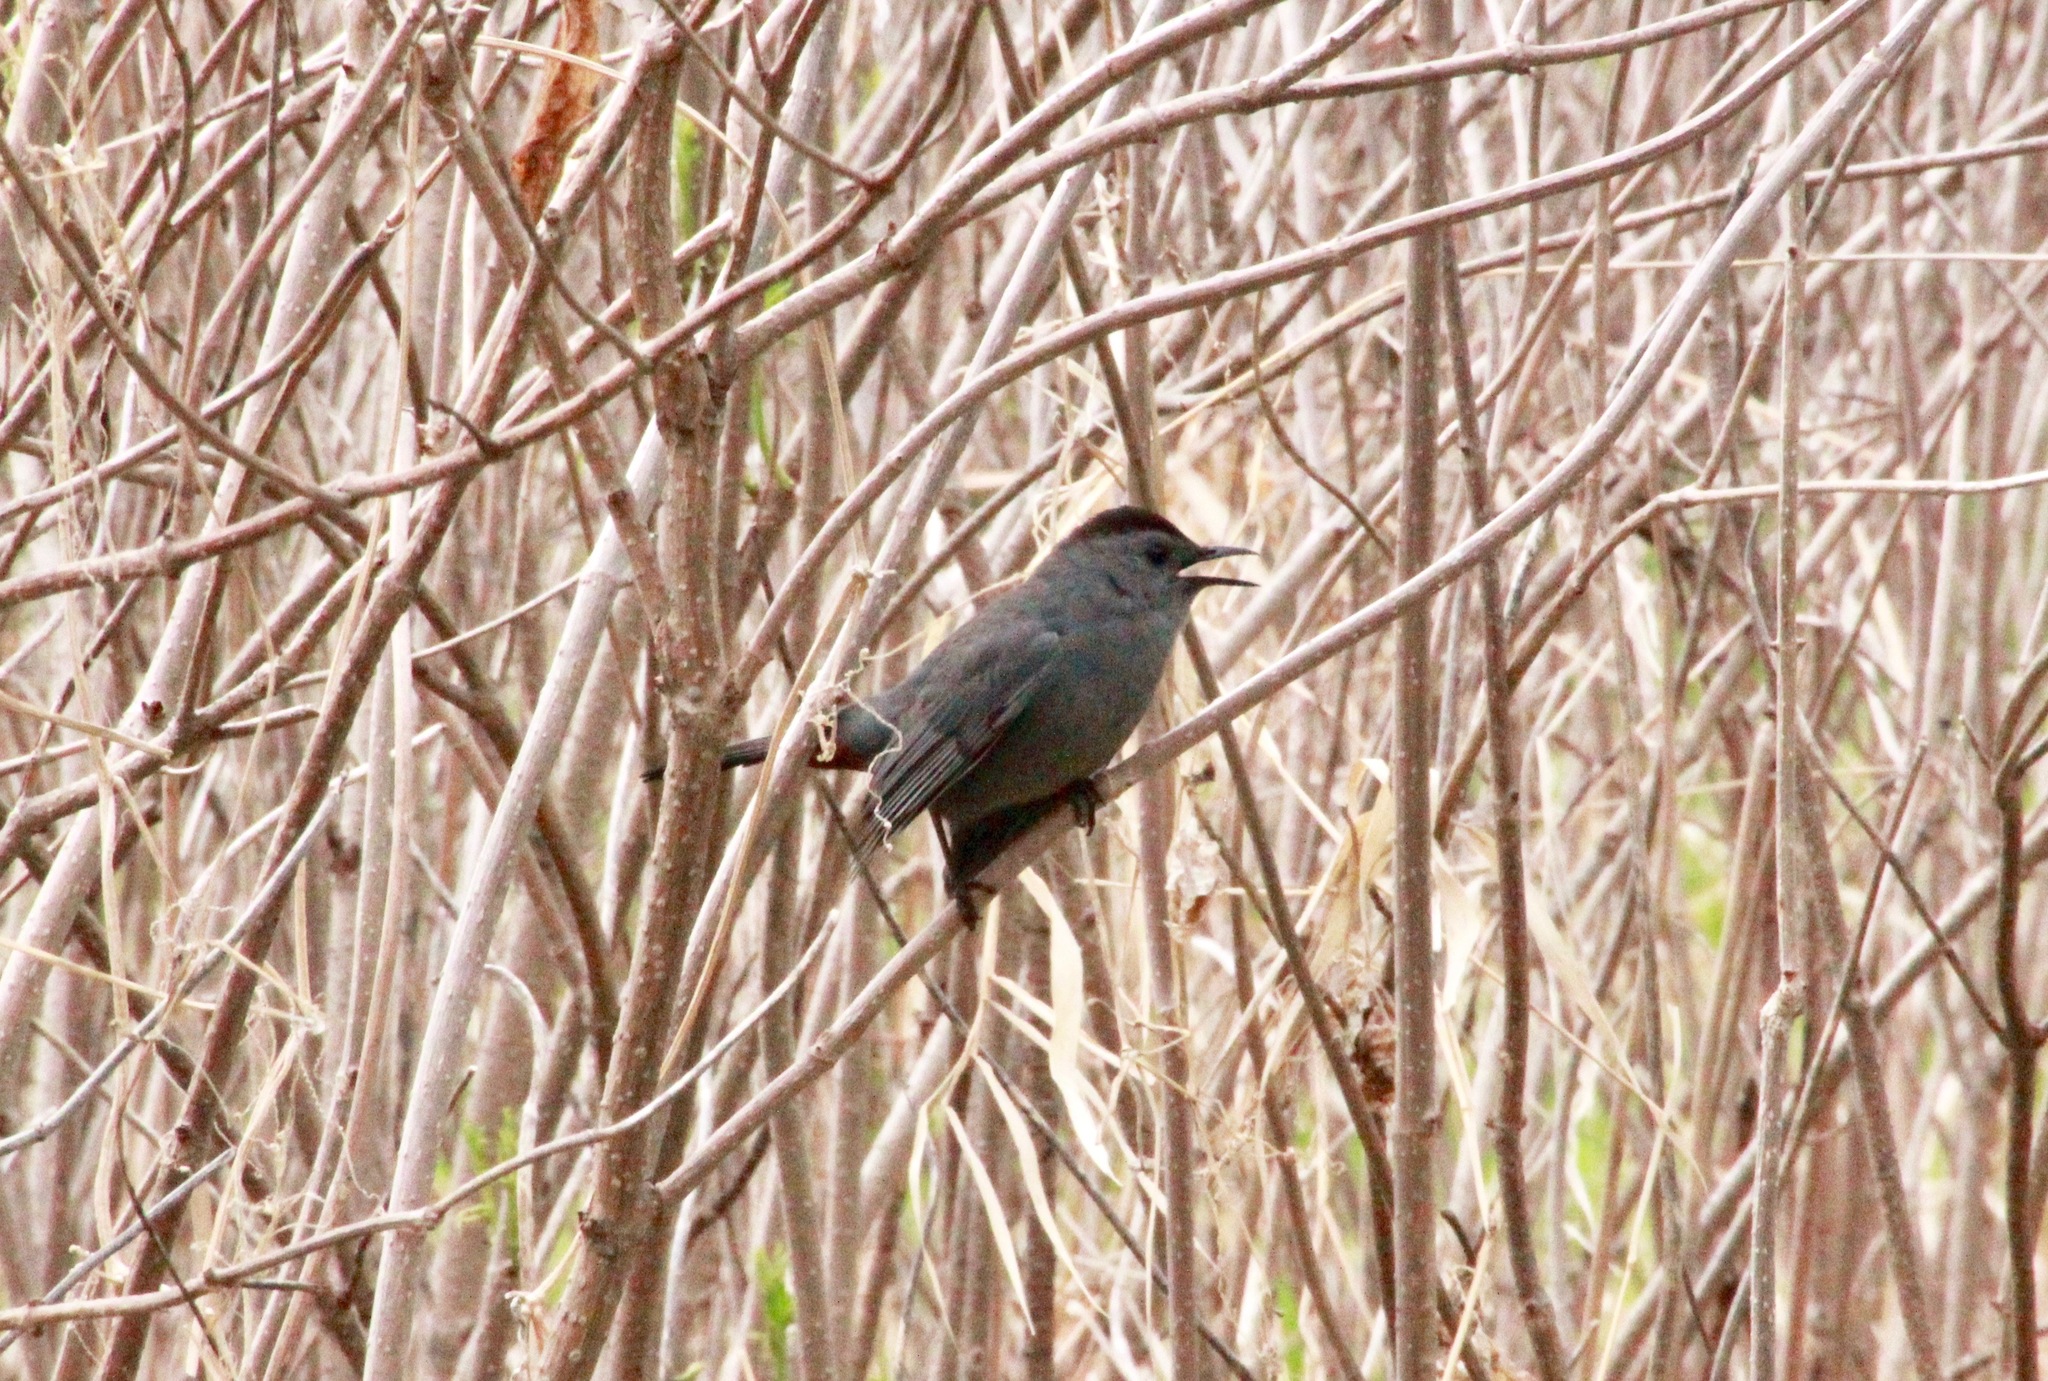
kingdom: Animalia
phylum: Chordata
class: Aves
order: Passeriformes
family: Mimidae
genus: Dumetella
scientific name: Dumetella carolinensis
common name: Gray catbird
